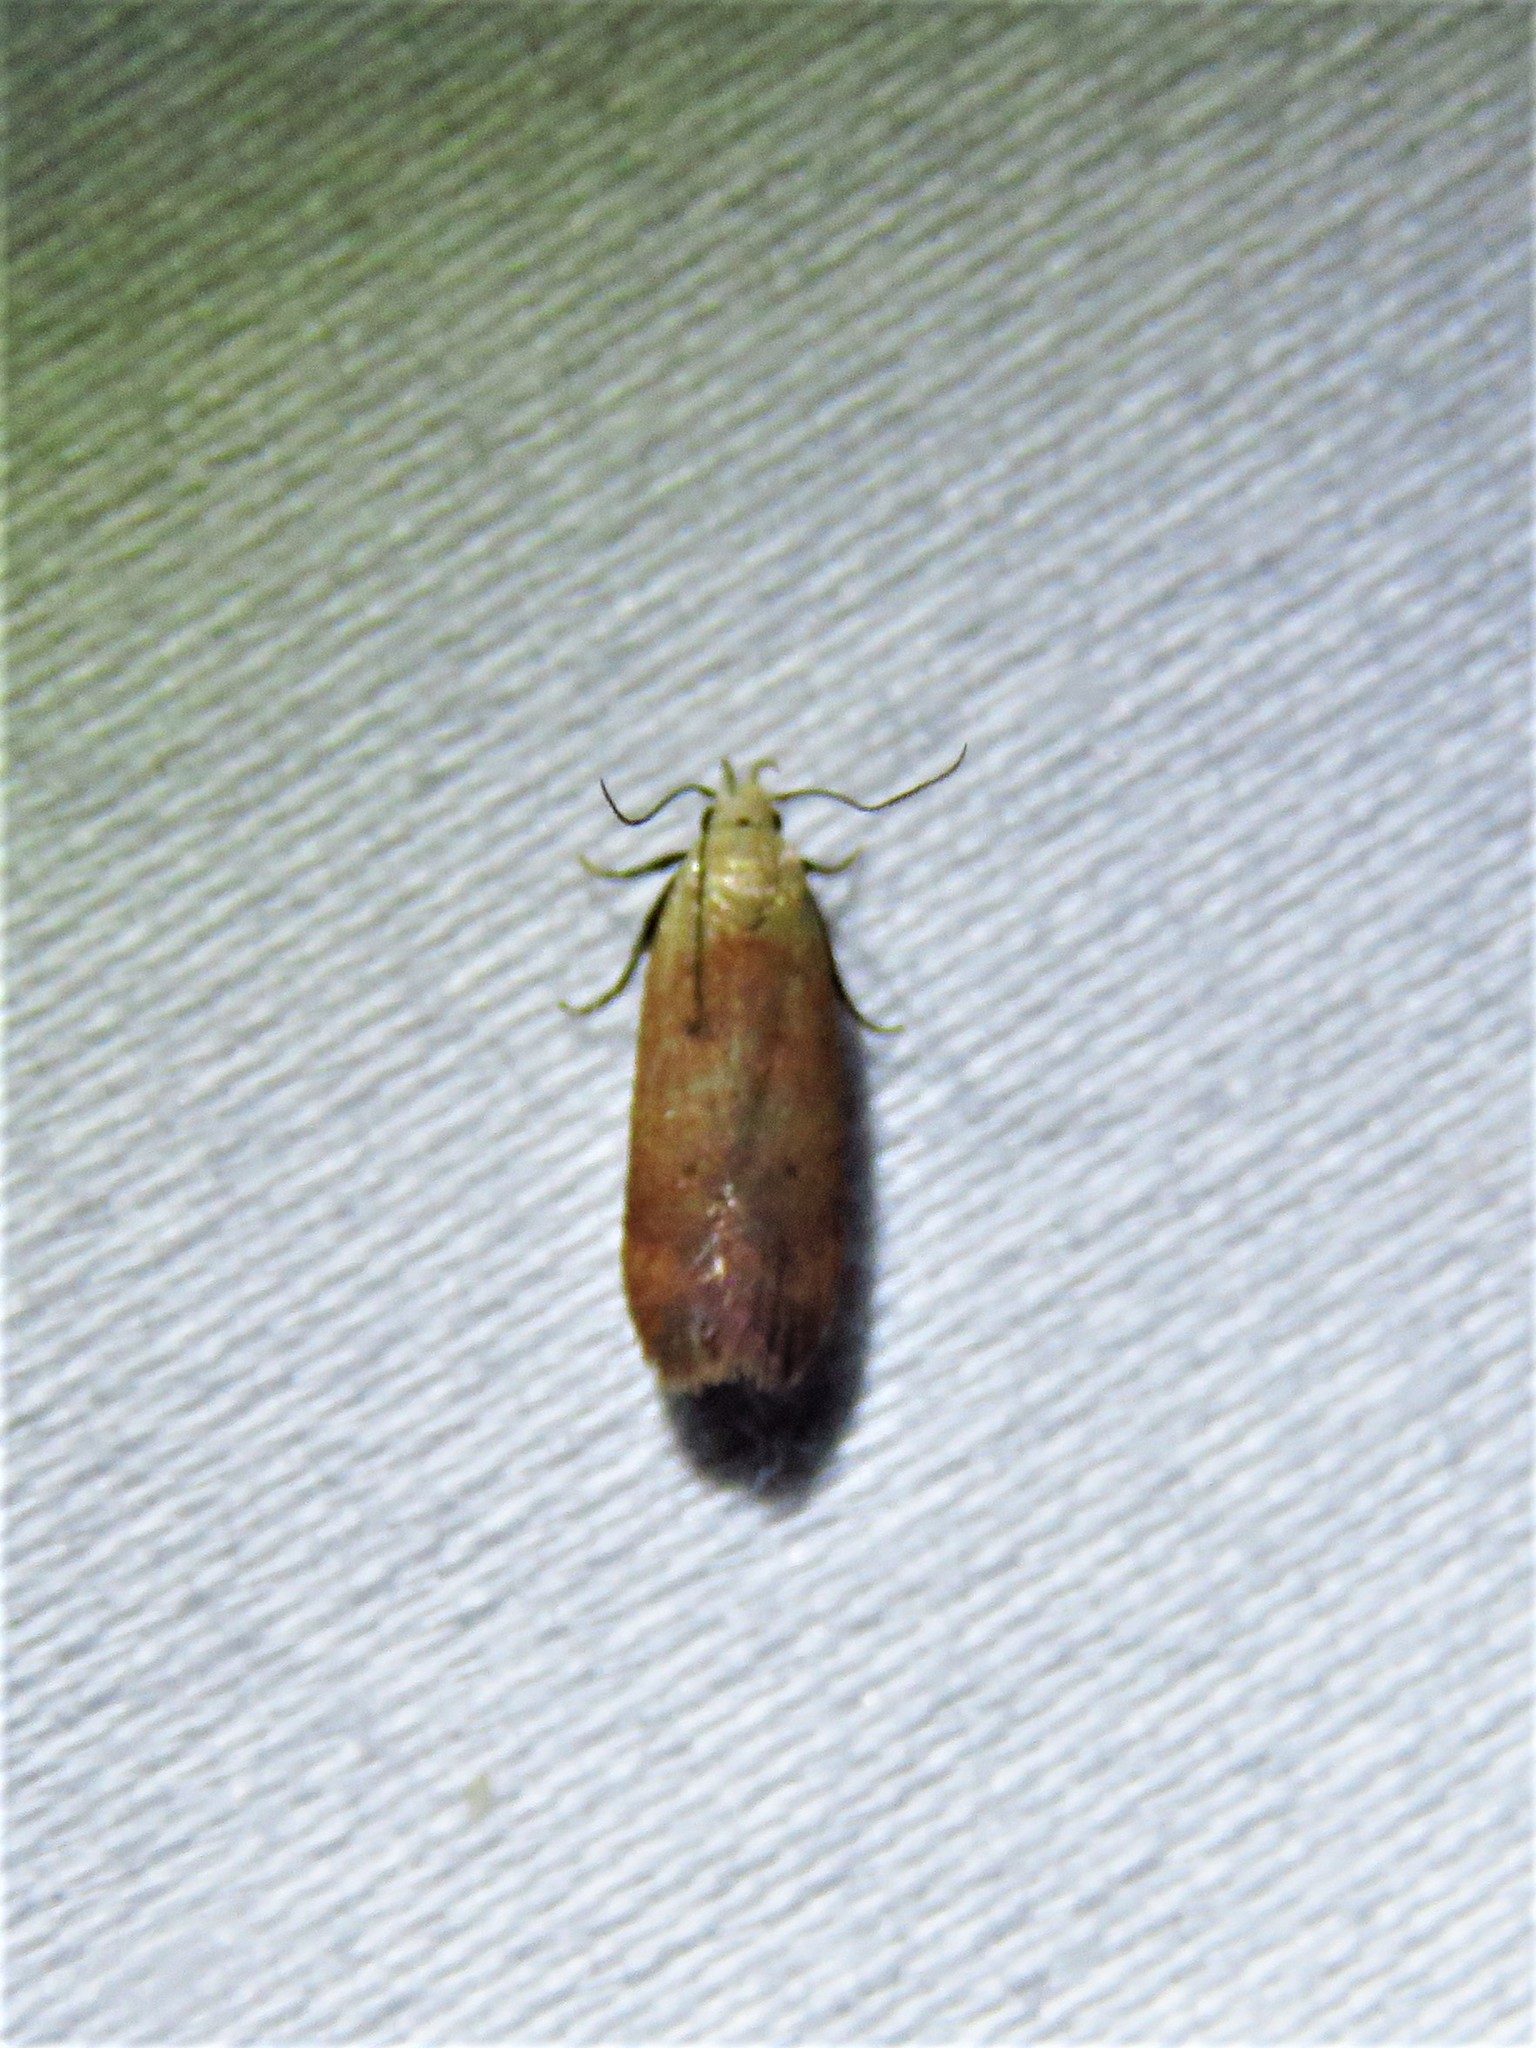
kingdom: Animalia
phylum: Arthropoda
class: Insecta
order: Lepidoptera
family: Gelechiidae
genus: Anacampsis
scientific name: Anacampsis fullonella
